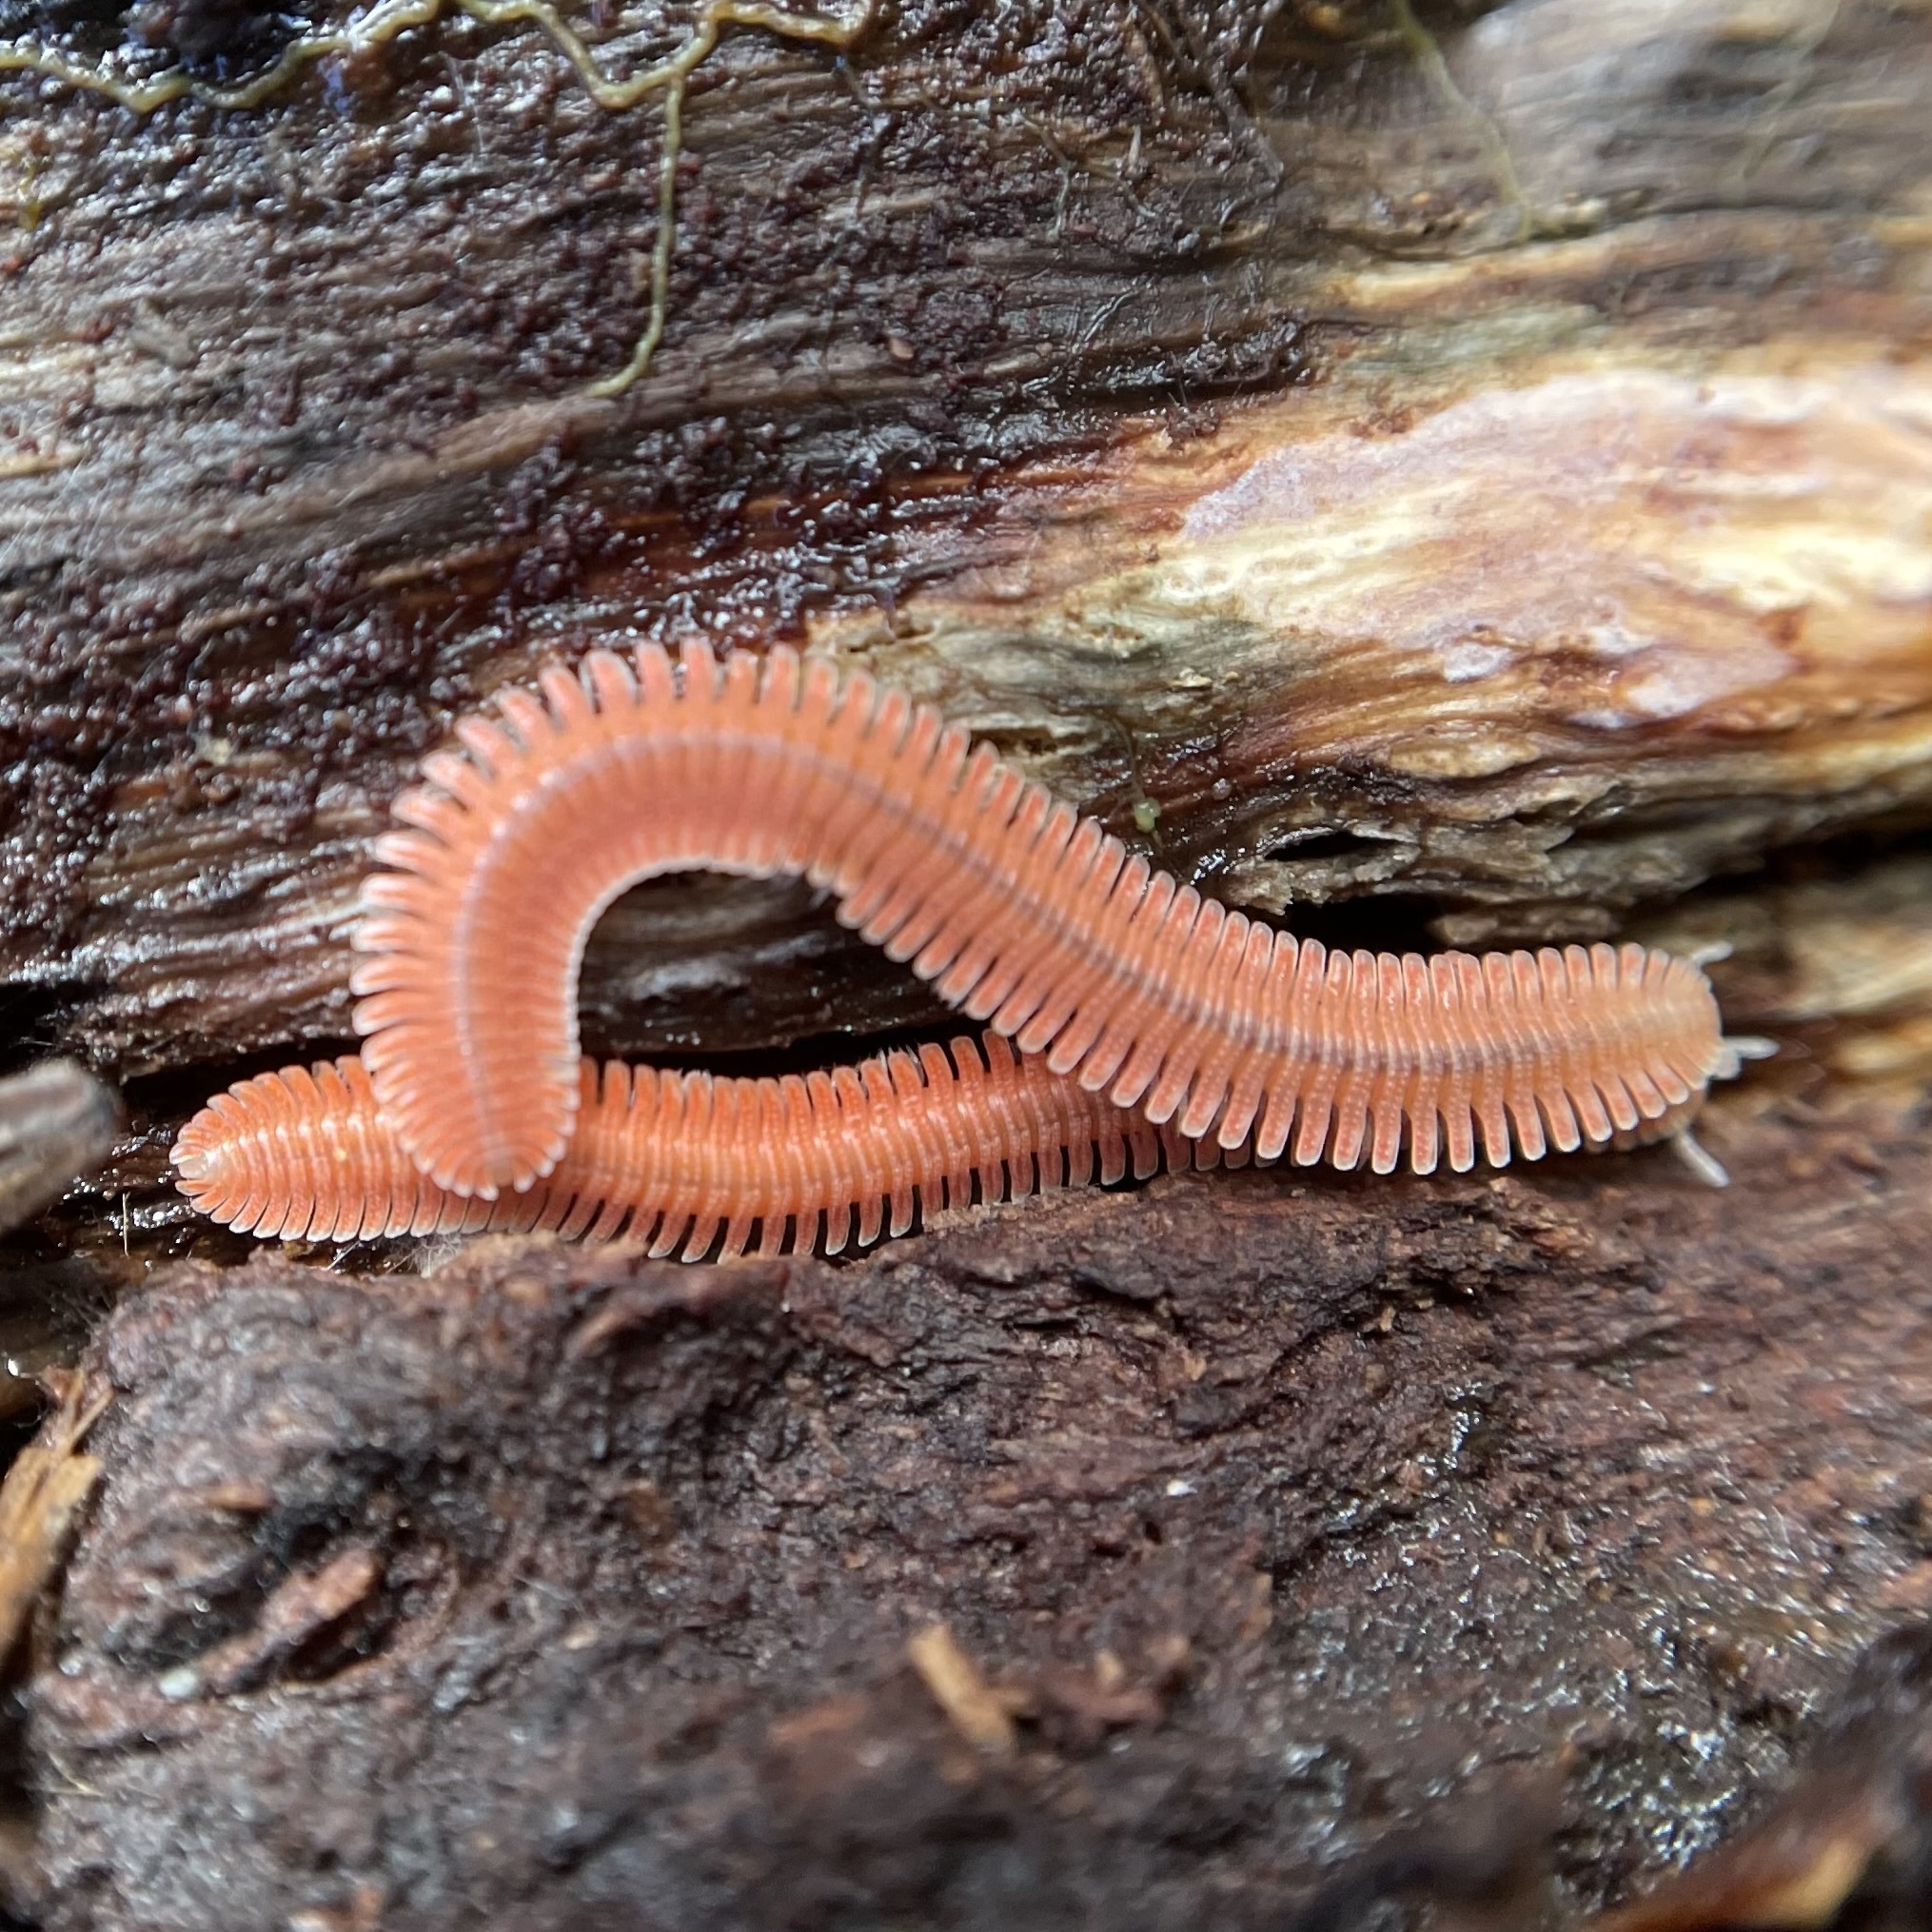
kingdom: Animalia
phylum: Arthropoda
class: Diplopoda
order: Platydesmida
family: Andrognathidae
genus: Brachycybe
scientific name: Brachycybe rosea
